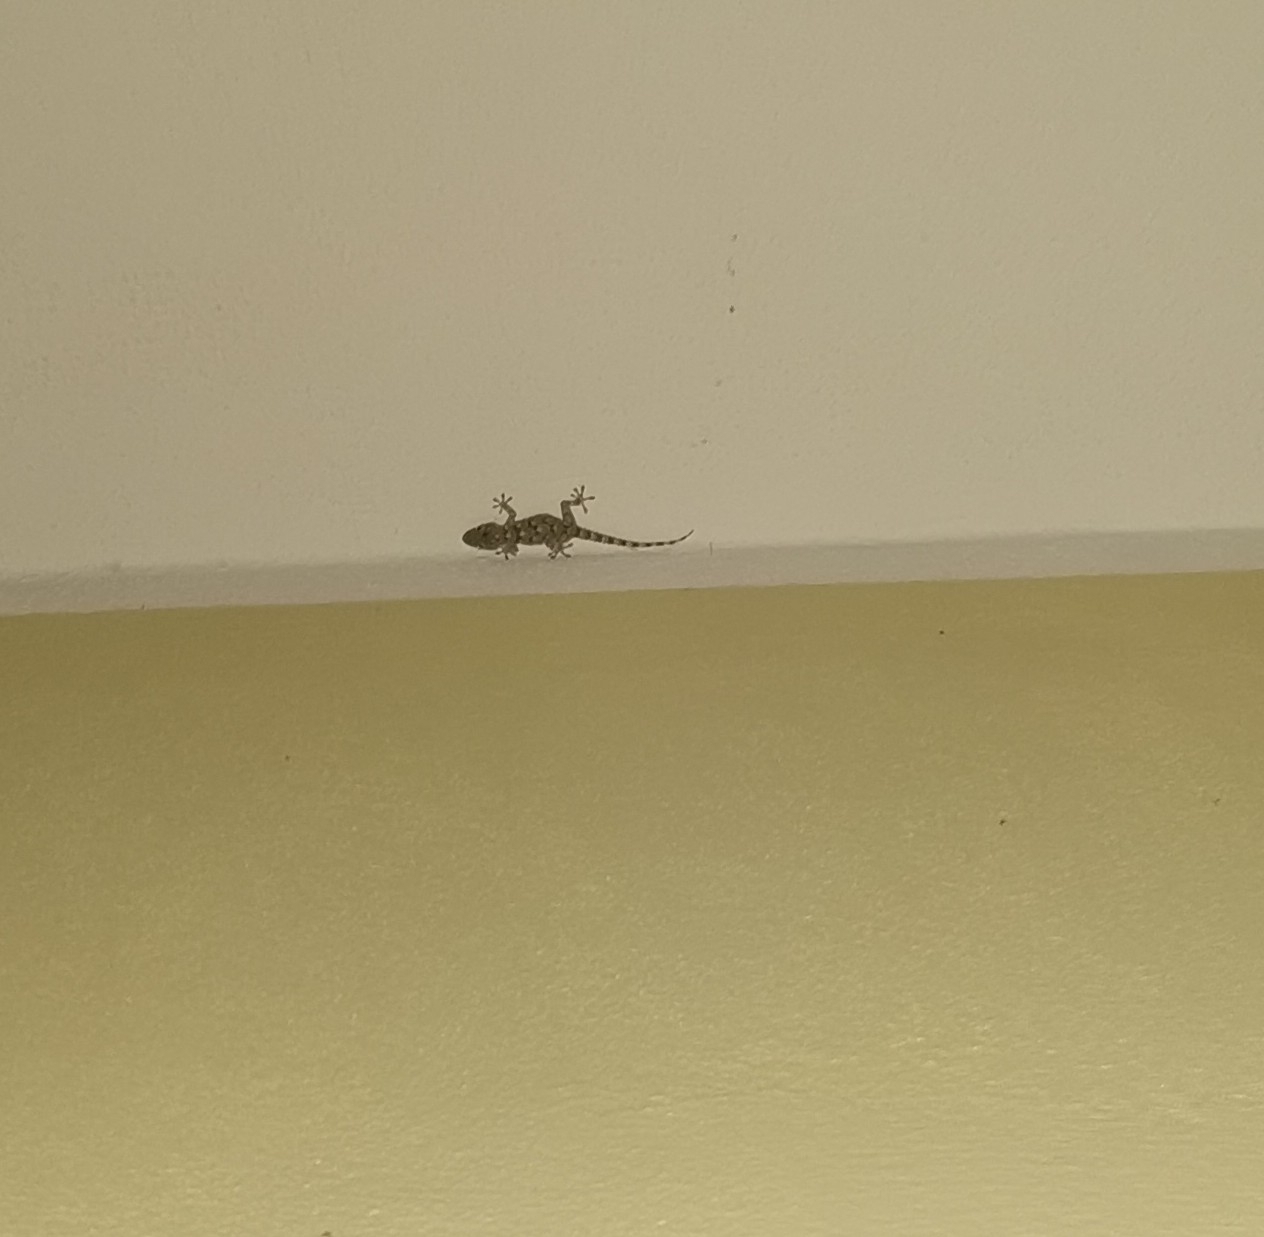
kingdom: Animalia
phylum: Chordata
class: Squamata
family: Phyllodactylidae
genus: Tarentola
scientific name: Tarentola mauritanica
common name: Moorish gecko
